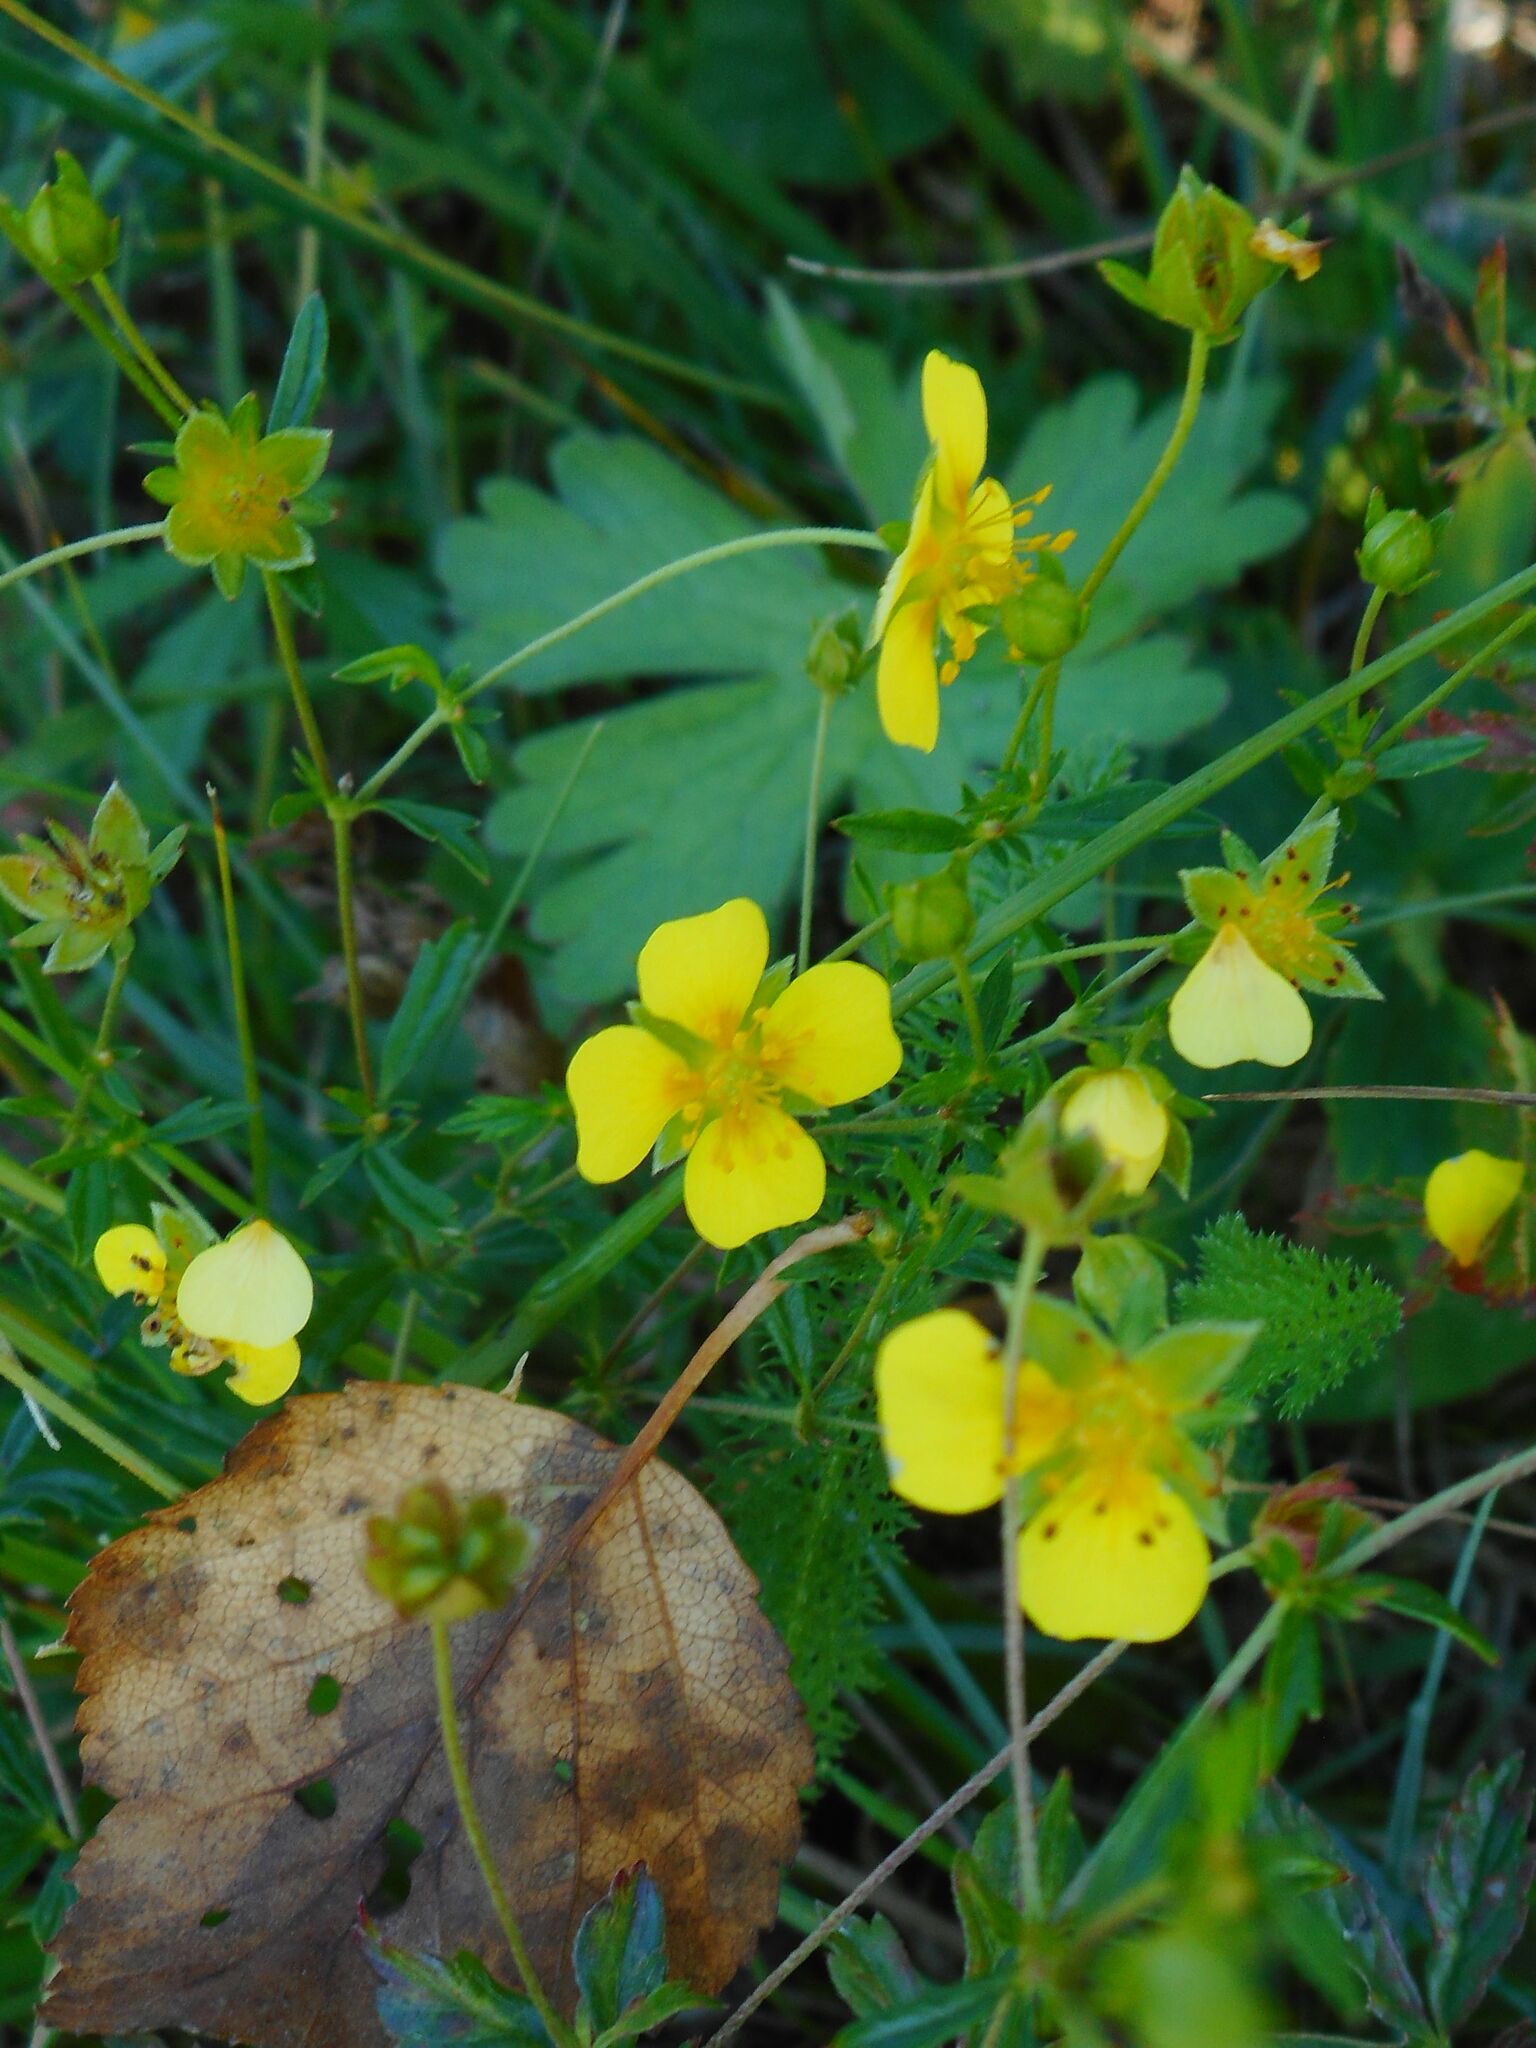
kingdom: Plantae
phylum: Tracheophyta
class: Magnoliopsida
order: Rosales
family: Rosaceae
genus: Potentilla
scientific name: Potentilla erecta
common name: Tormentil
